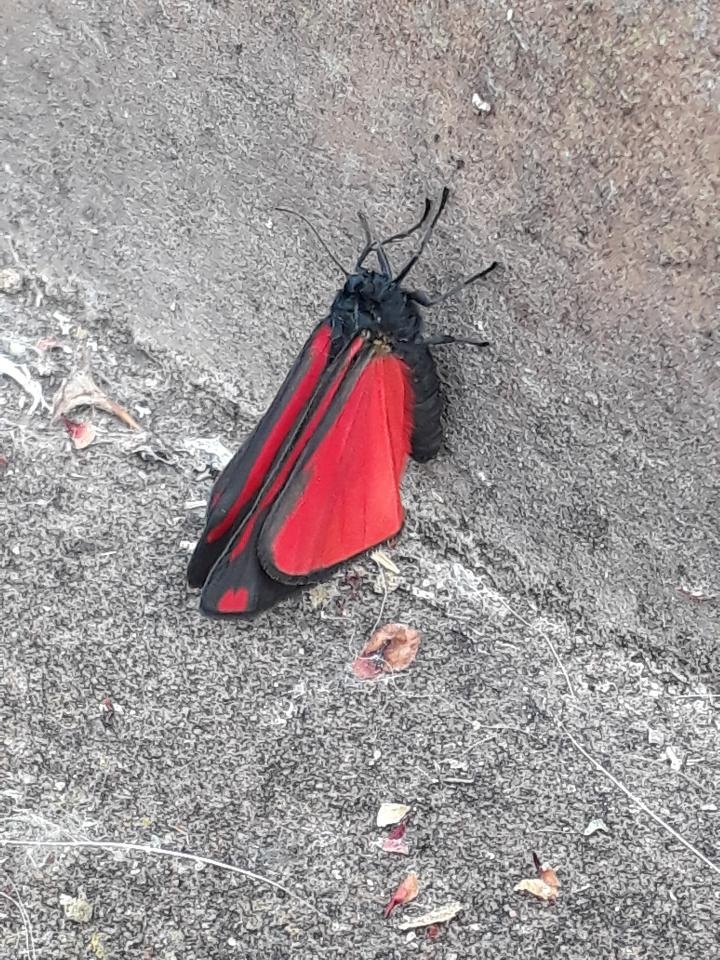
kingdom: Animalia
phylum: Arthropoda
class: Insecta
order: Lepidoptera
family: Erebidae
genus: Tyria
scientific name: Tyria jacobaeae
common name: Cinnabar
